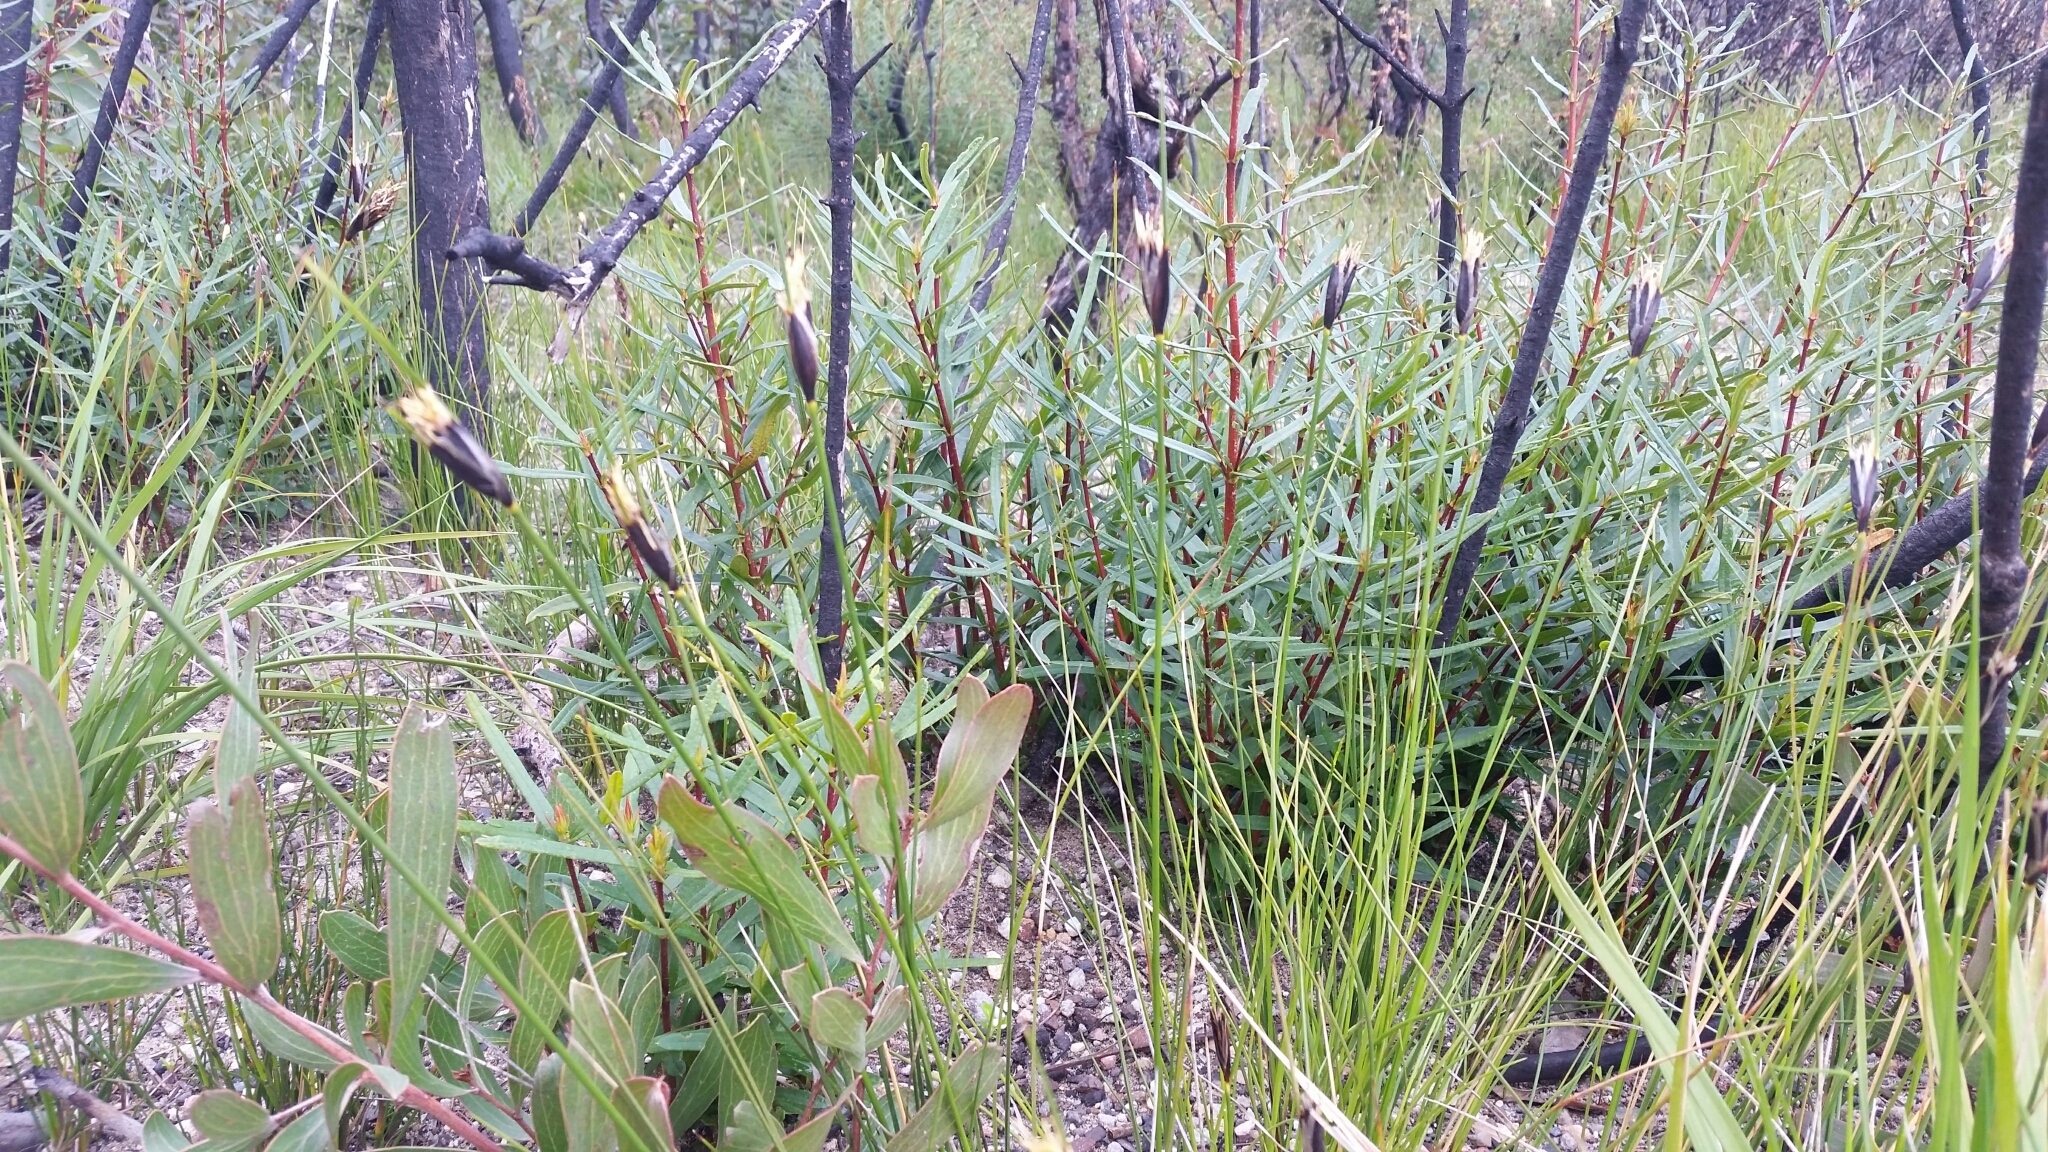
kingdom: Plantae
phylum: Tracheophyta
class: Liliopsida
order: Poales
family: Cyperaceae
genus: Ptilothrix
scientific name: Ptilothrix deusta
